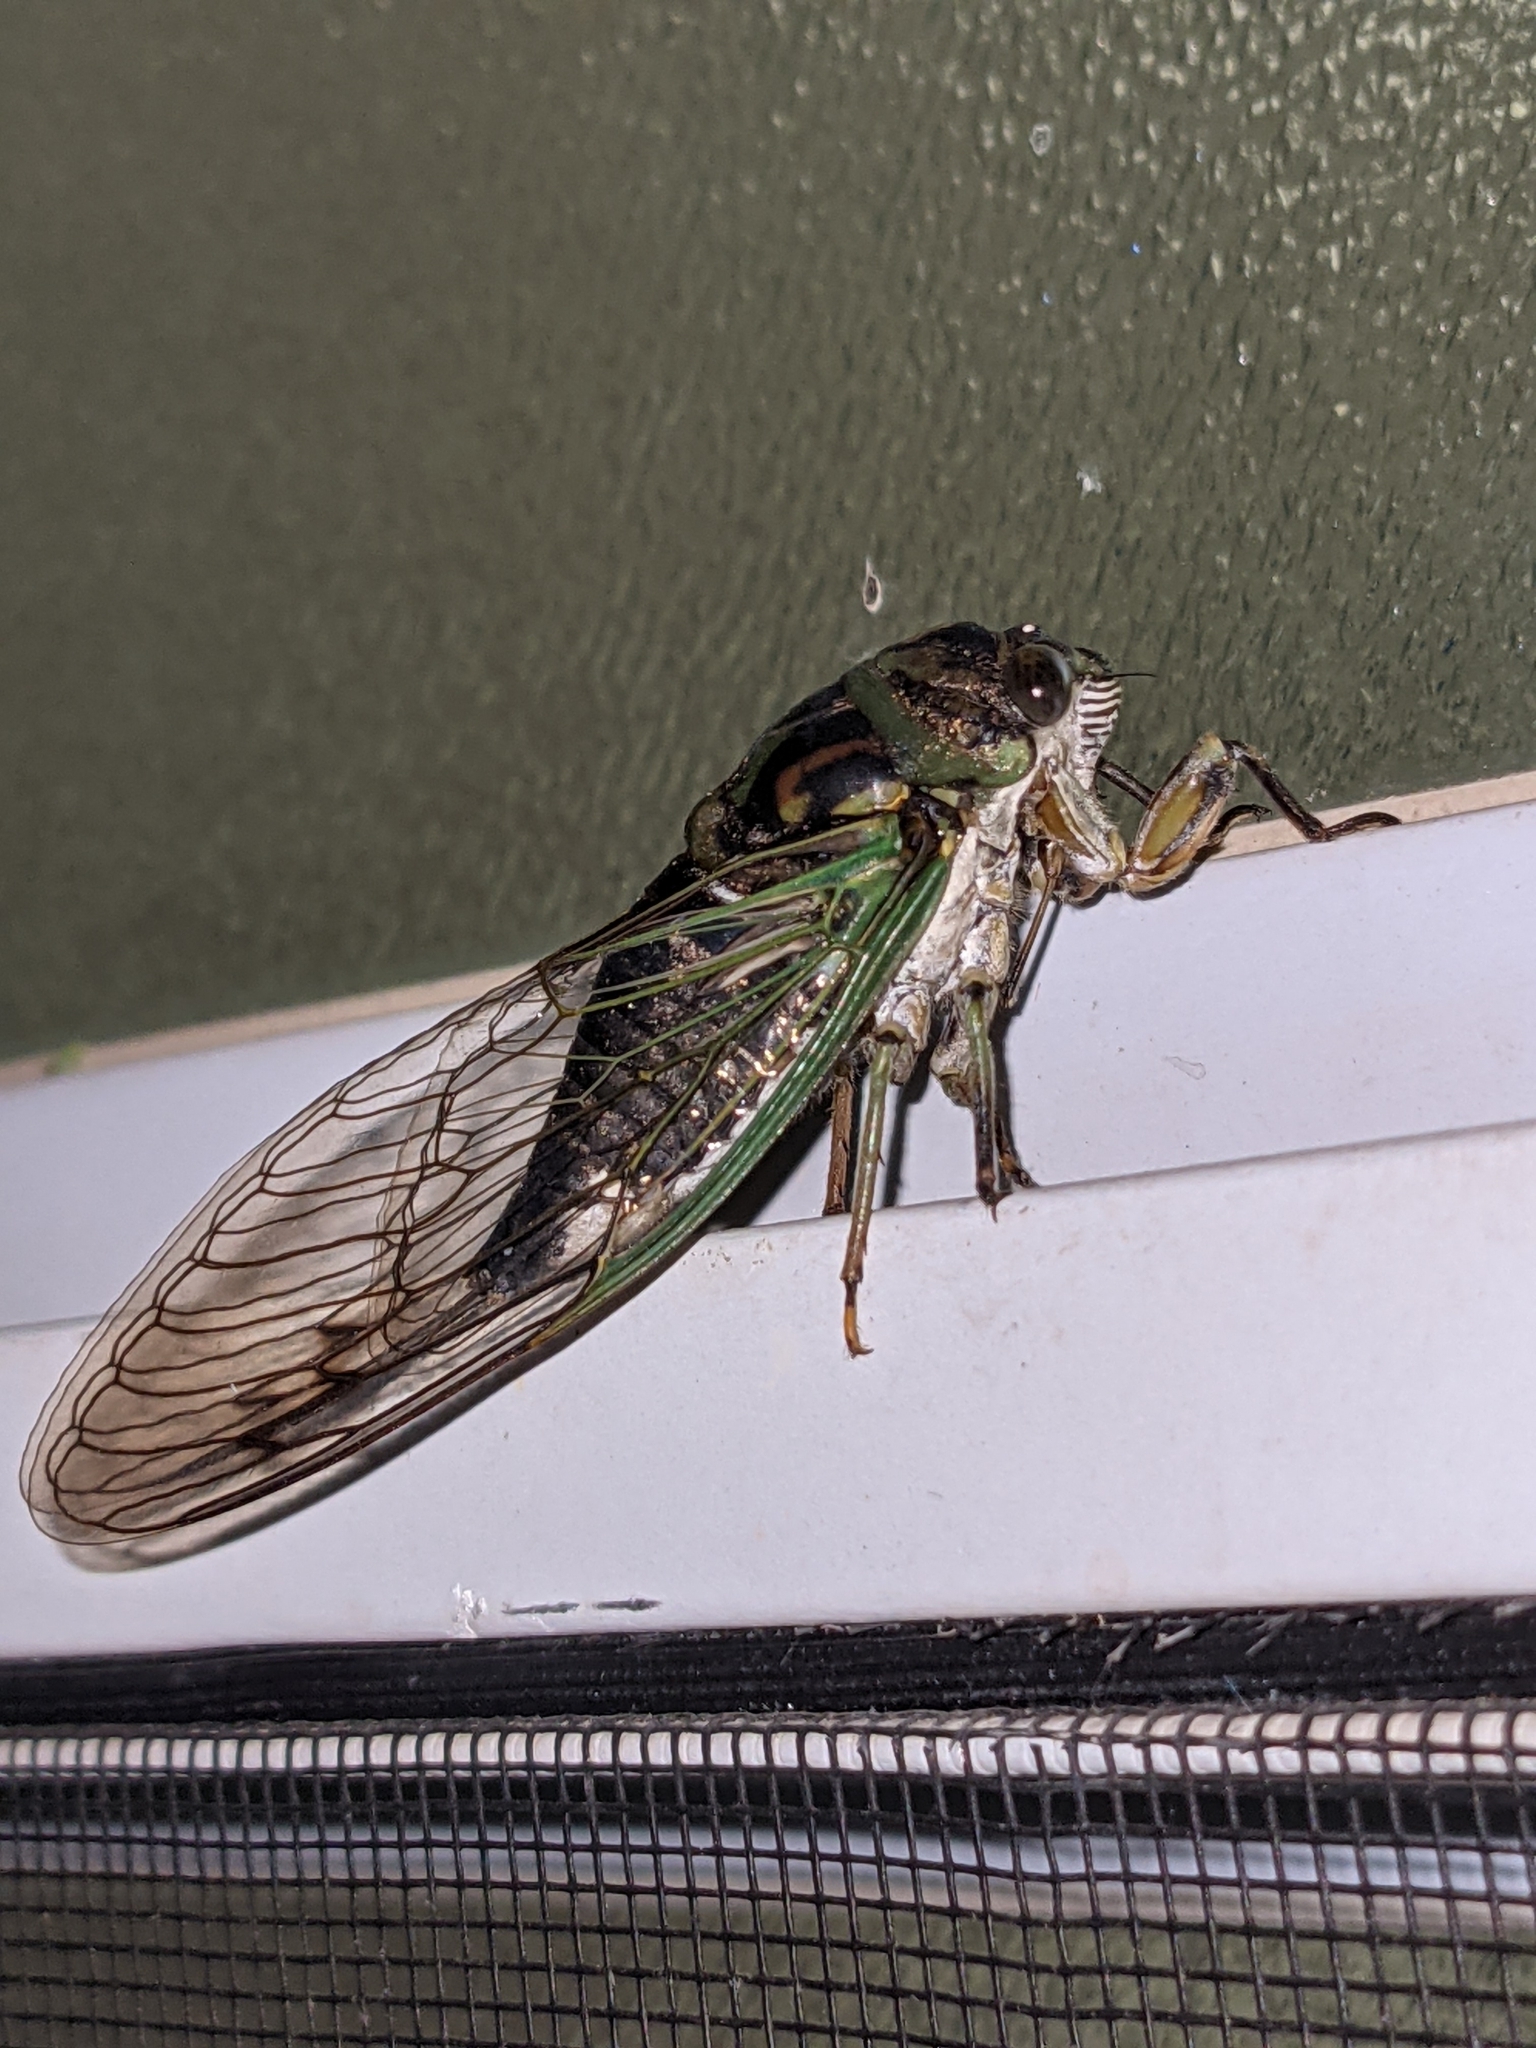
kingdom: Animalia
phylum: Arthropoda
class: Insecta
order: Hemiptera
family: Cicadidae
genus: Neotibicen
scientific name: Neotibicen canicularis
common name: God-day cicada
